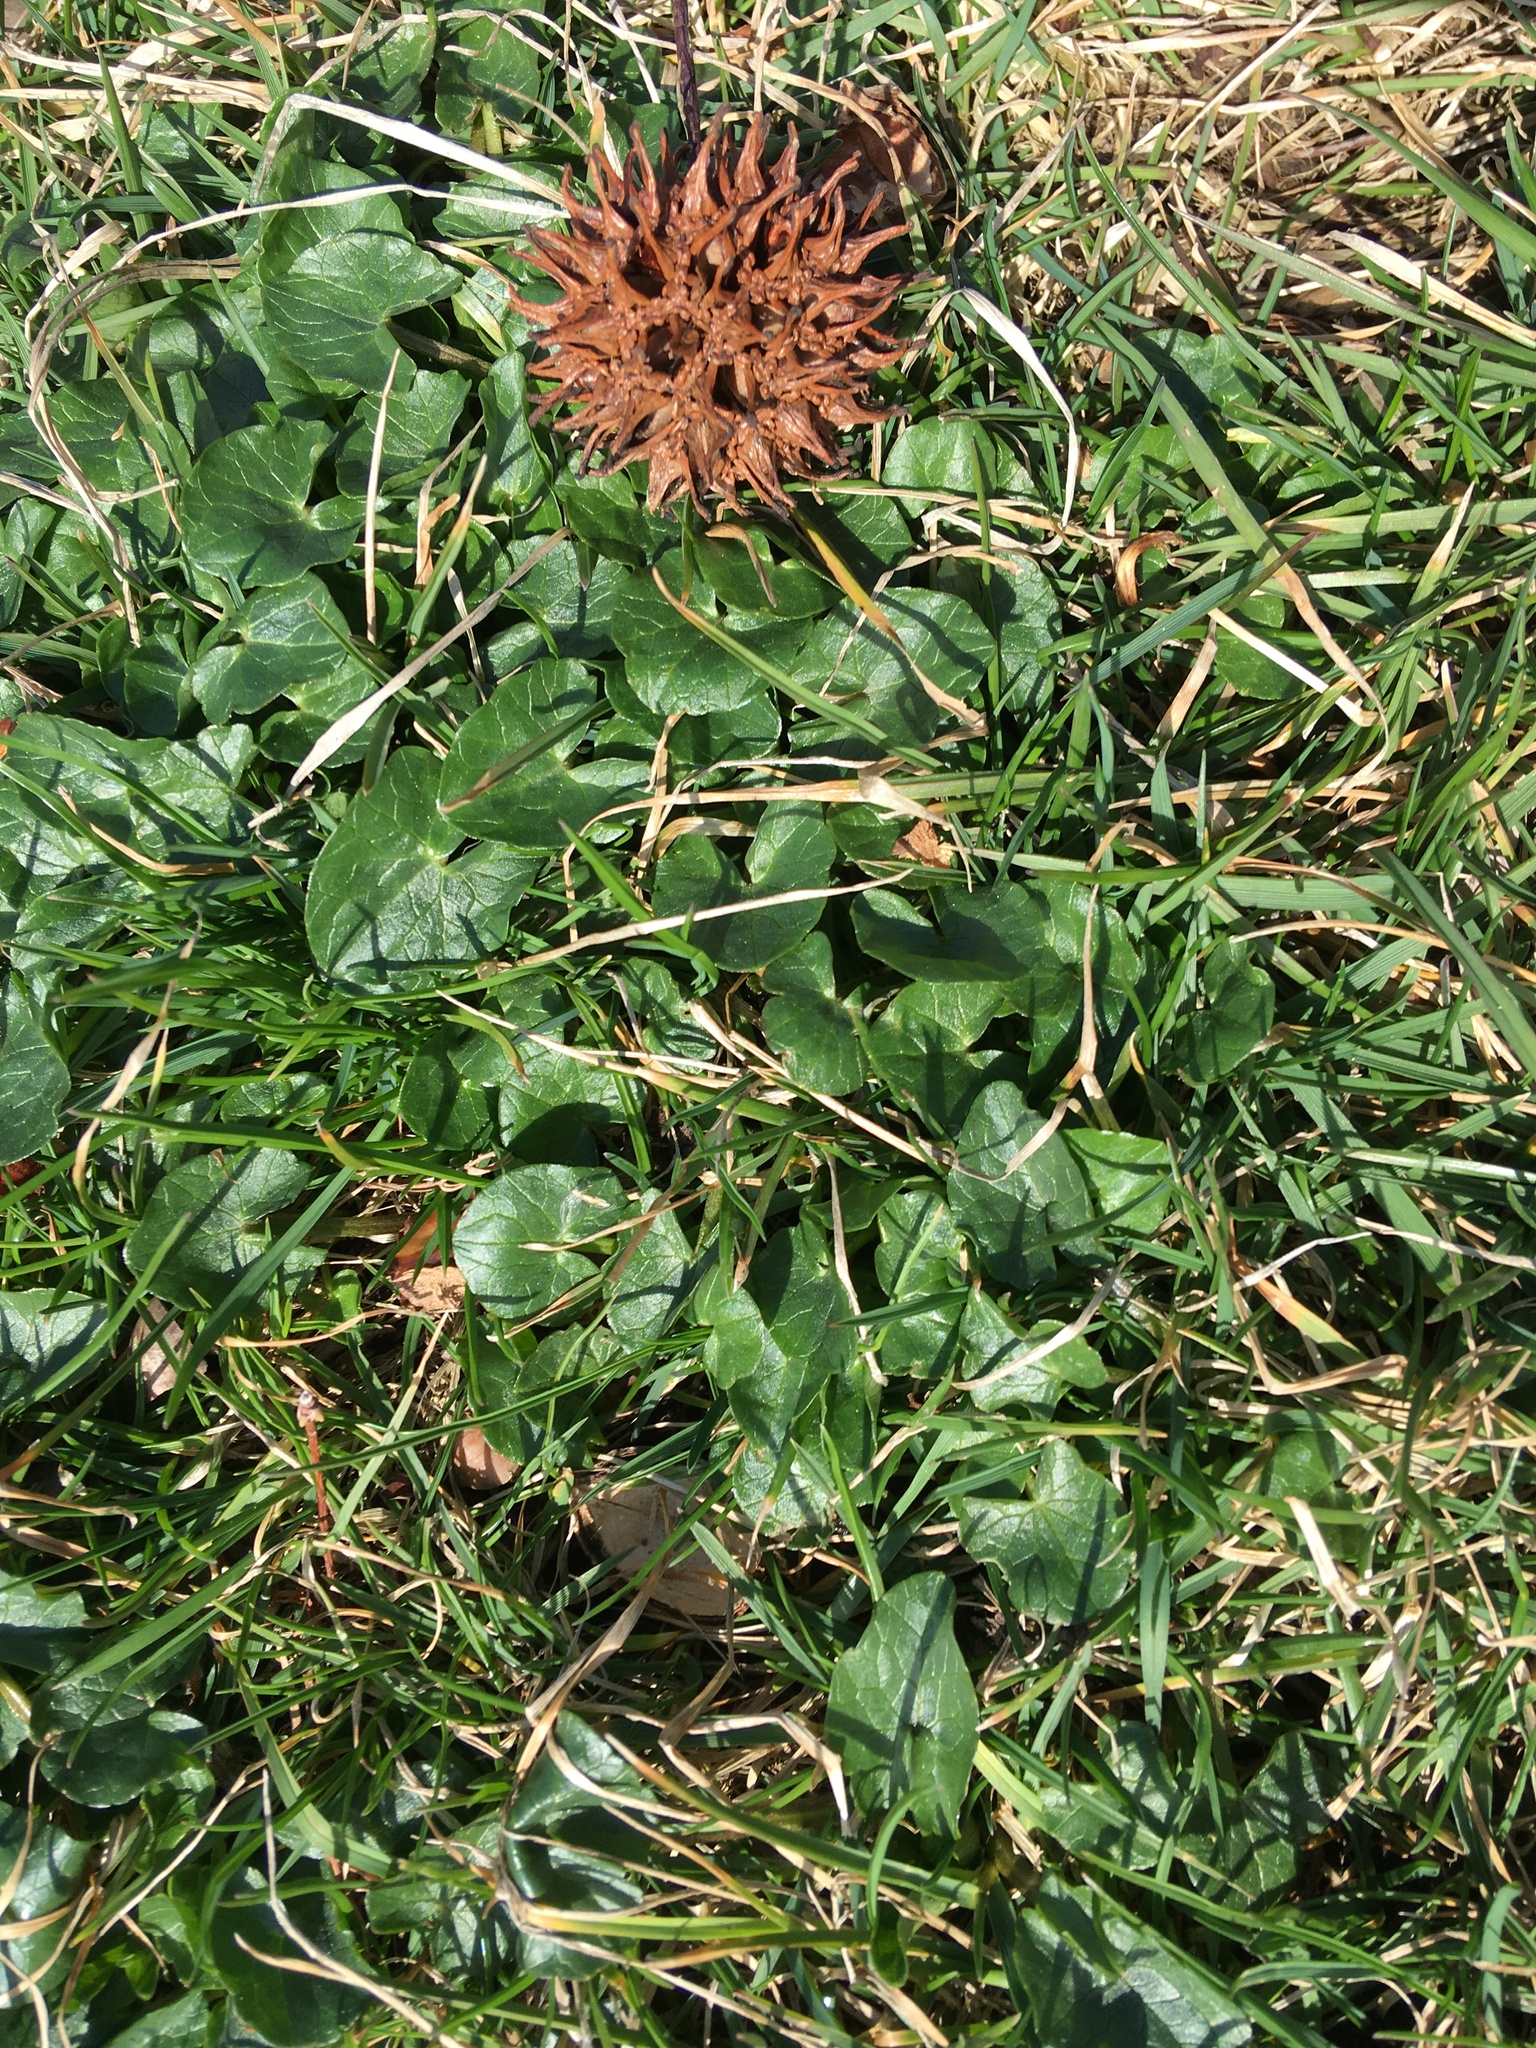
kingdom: Plantae
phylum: Tracheophyta
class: Magnoliopsida
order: Ranunculales
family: Ranunculaceae
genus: Ficaria
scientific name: Ficaria verna
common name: Lesser celandine
